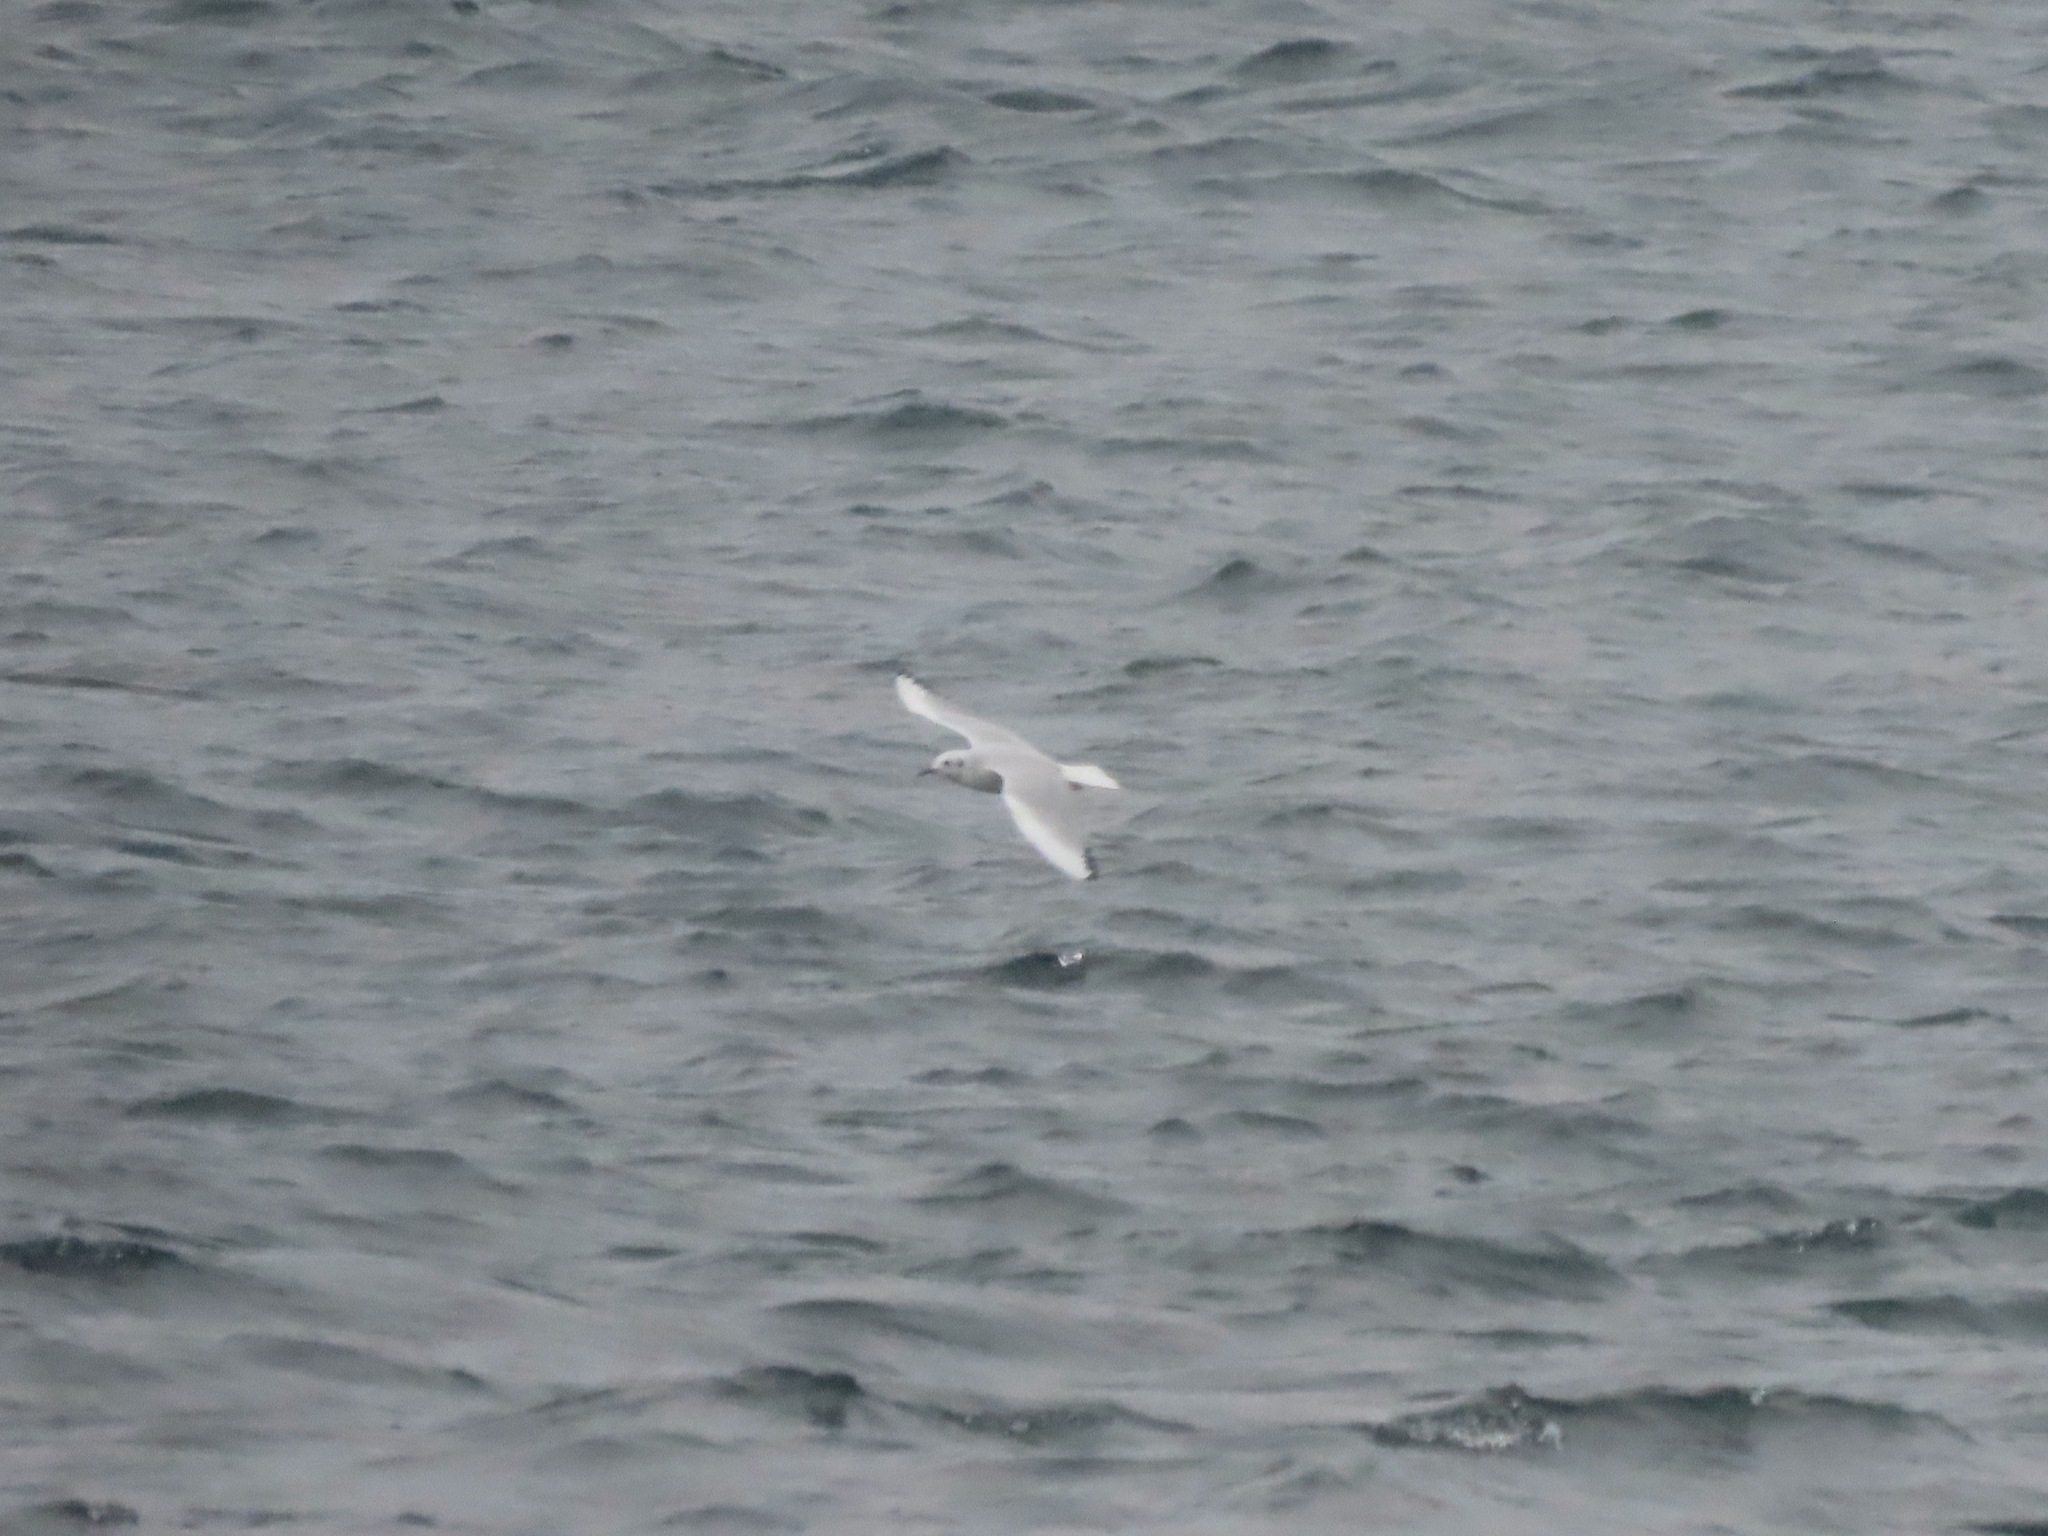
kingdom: Animalia
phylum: Chordata
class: Aves
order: Charadriiformes
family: Laridae
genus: Chroicocephalus
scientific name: Chroicocephalus philadelphia
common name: Bonaparte's gull
